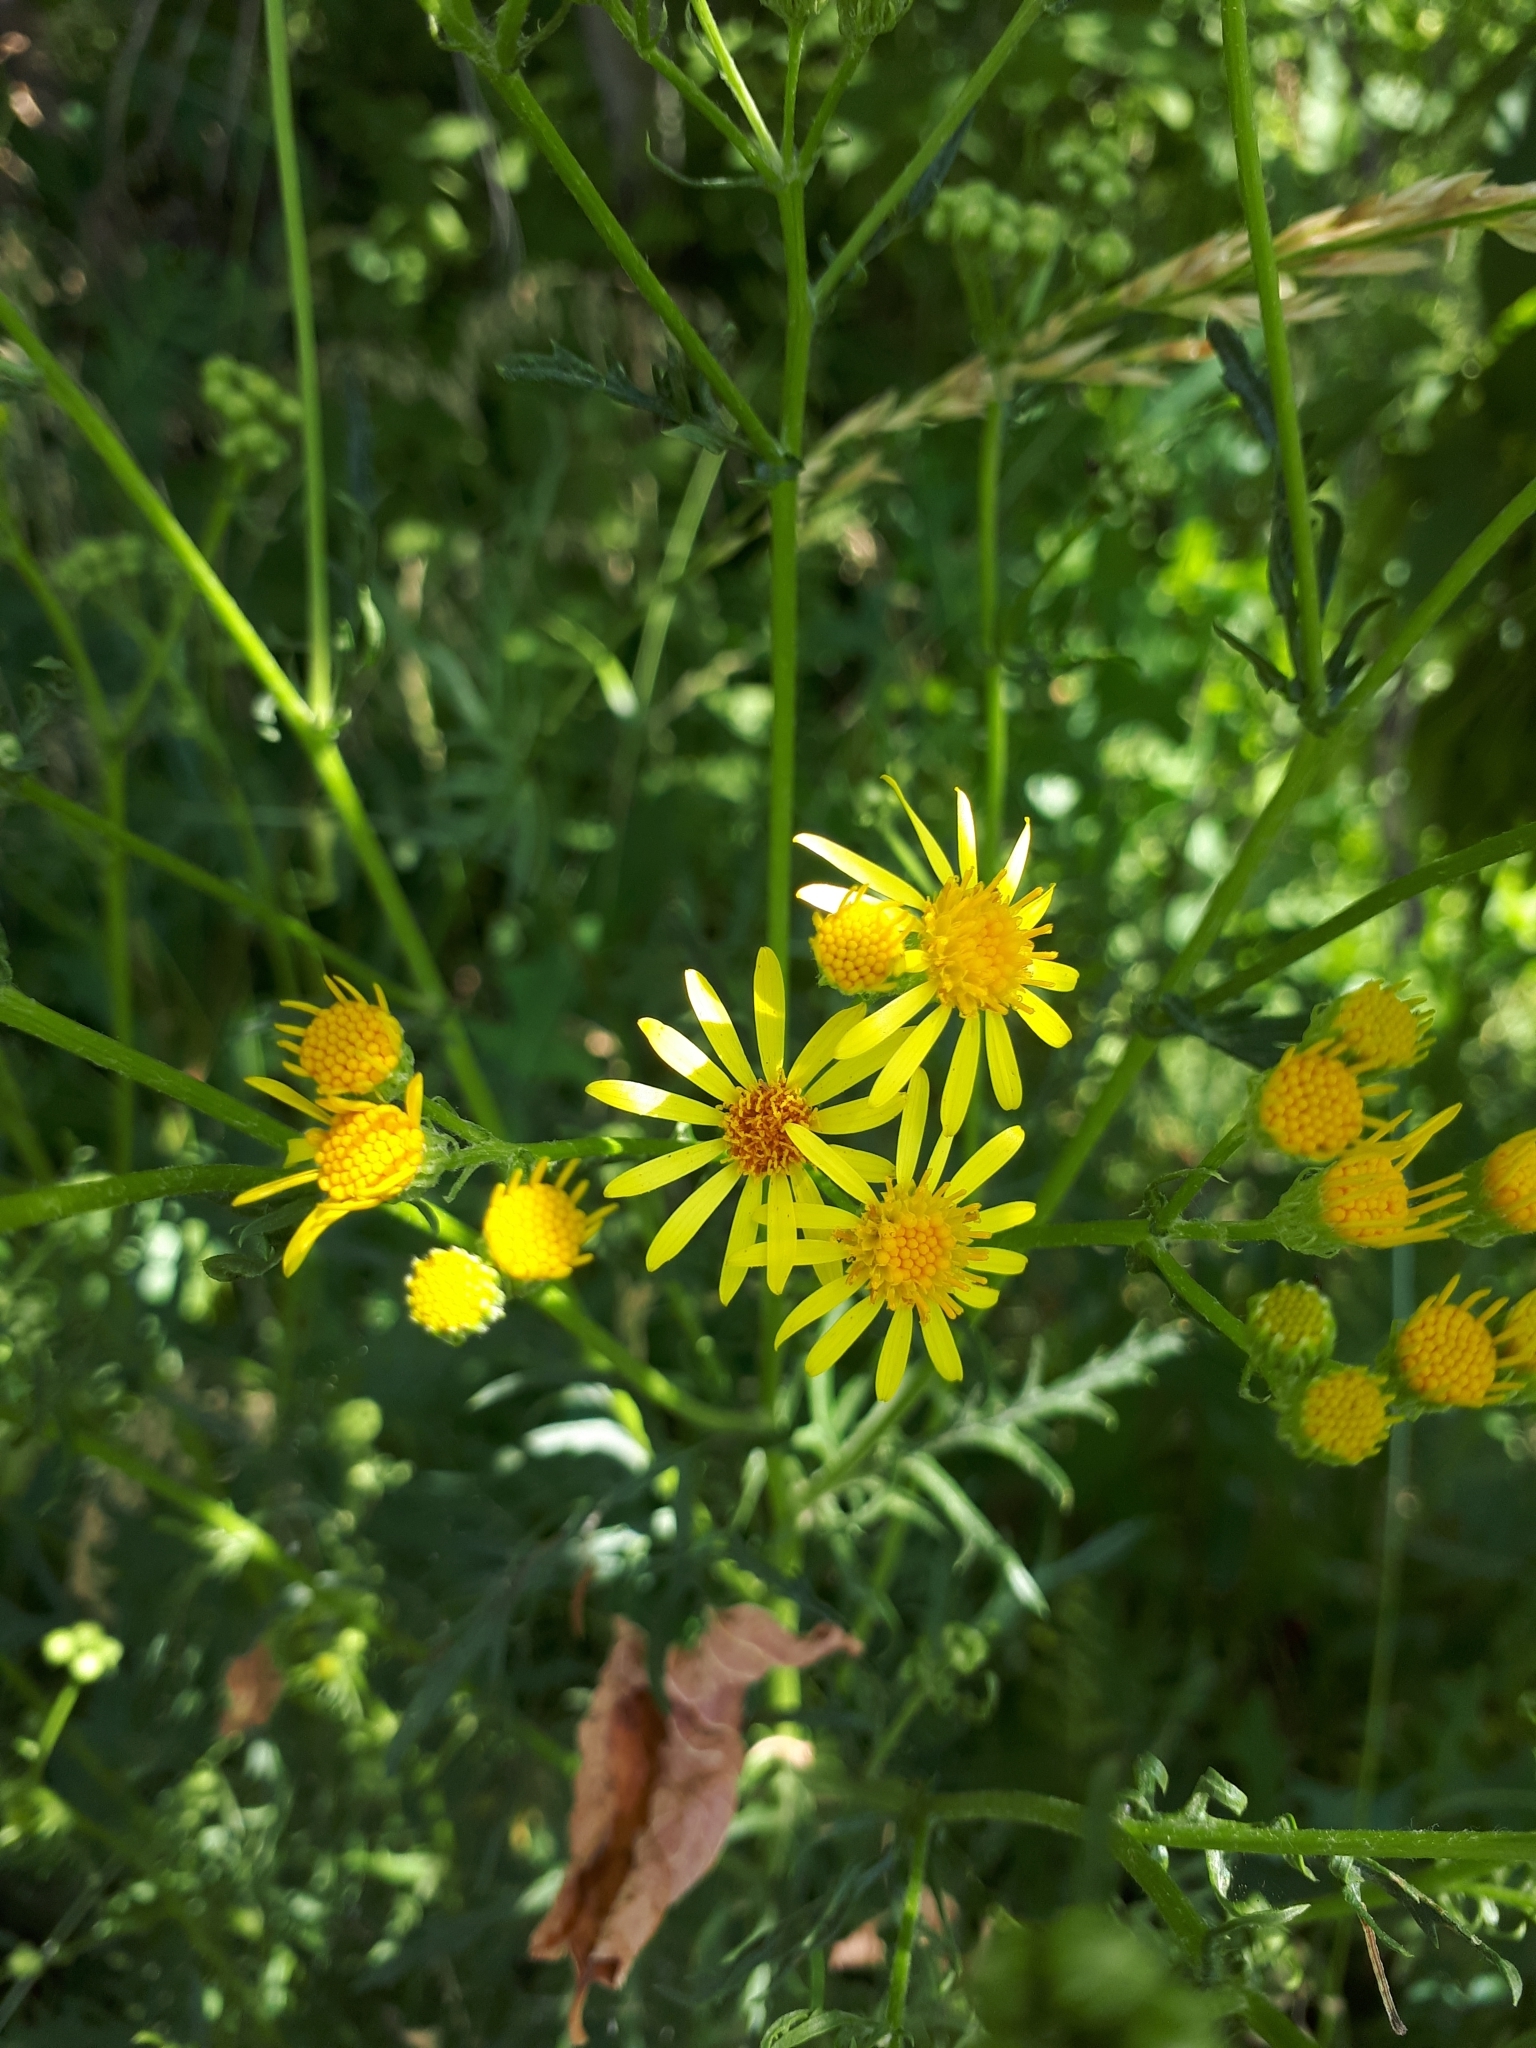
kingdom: Plantae
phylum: Tracheophyta
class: Magnoliopsida
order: Asterales
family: Asteraceae
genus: Jacobaea
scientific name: Jacobaea vulgaris
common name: Stinking willie
